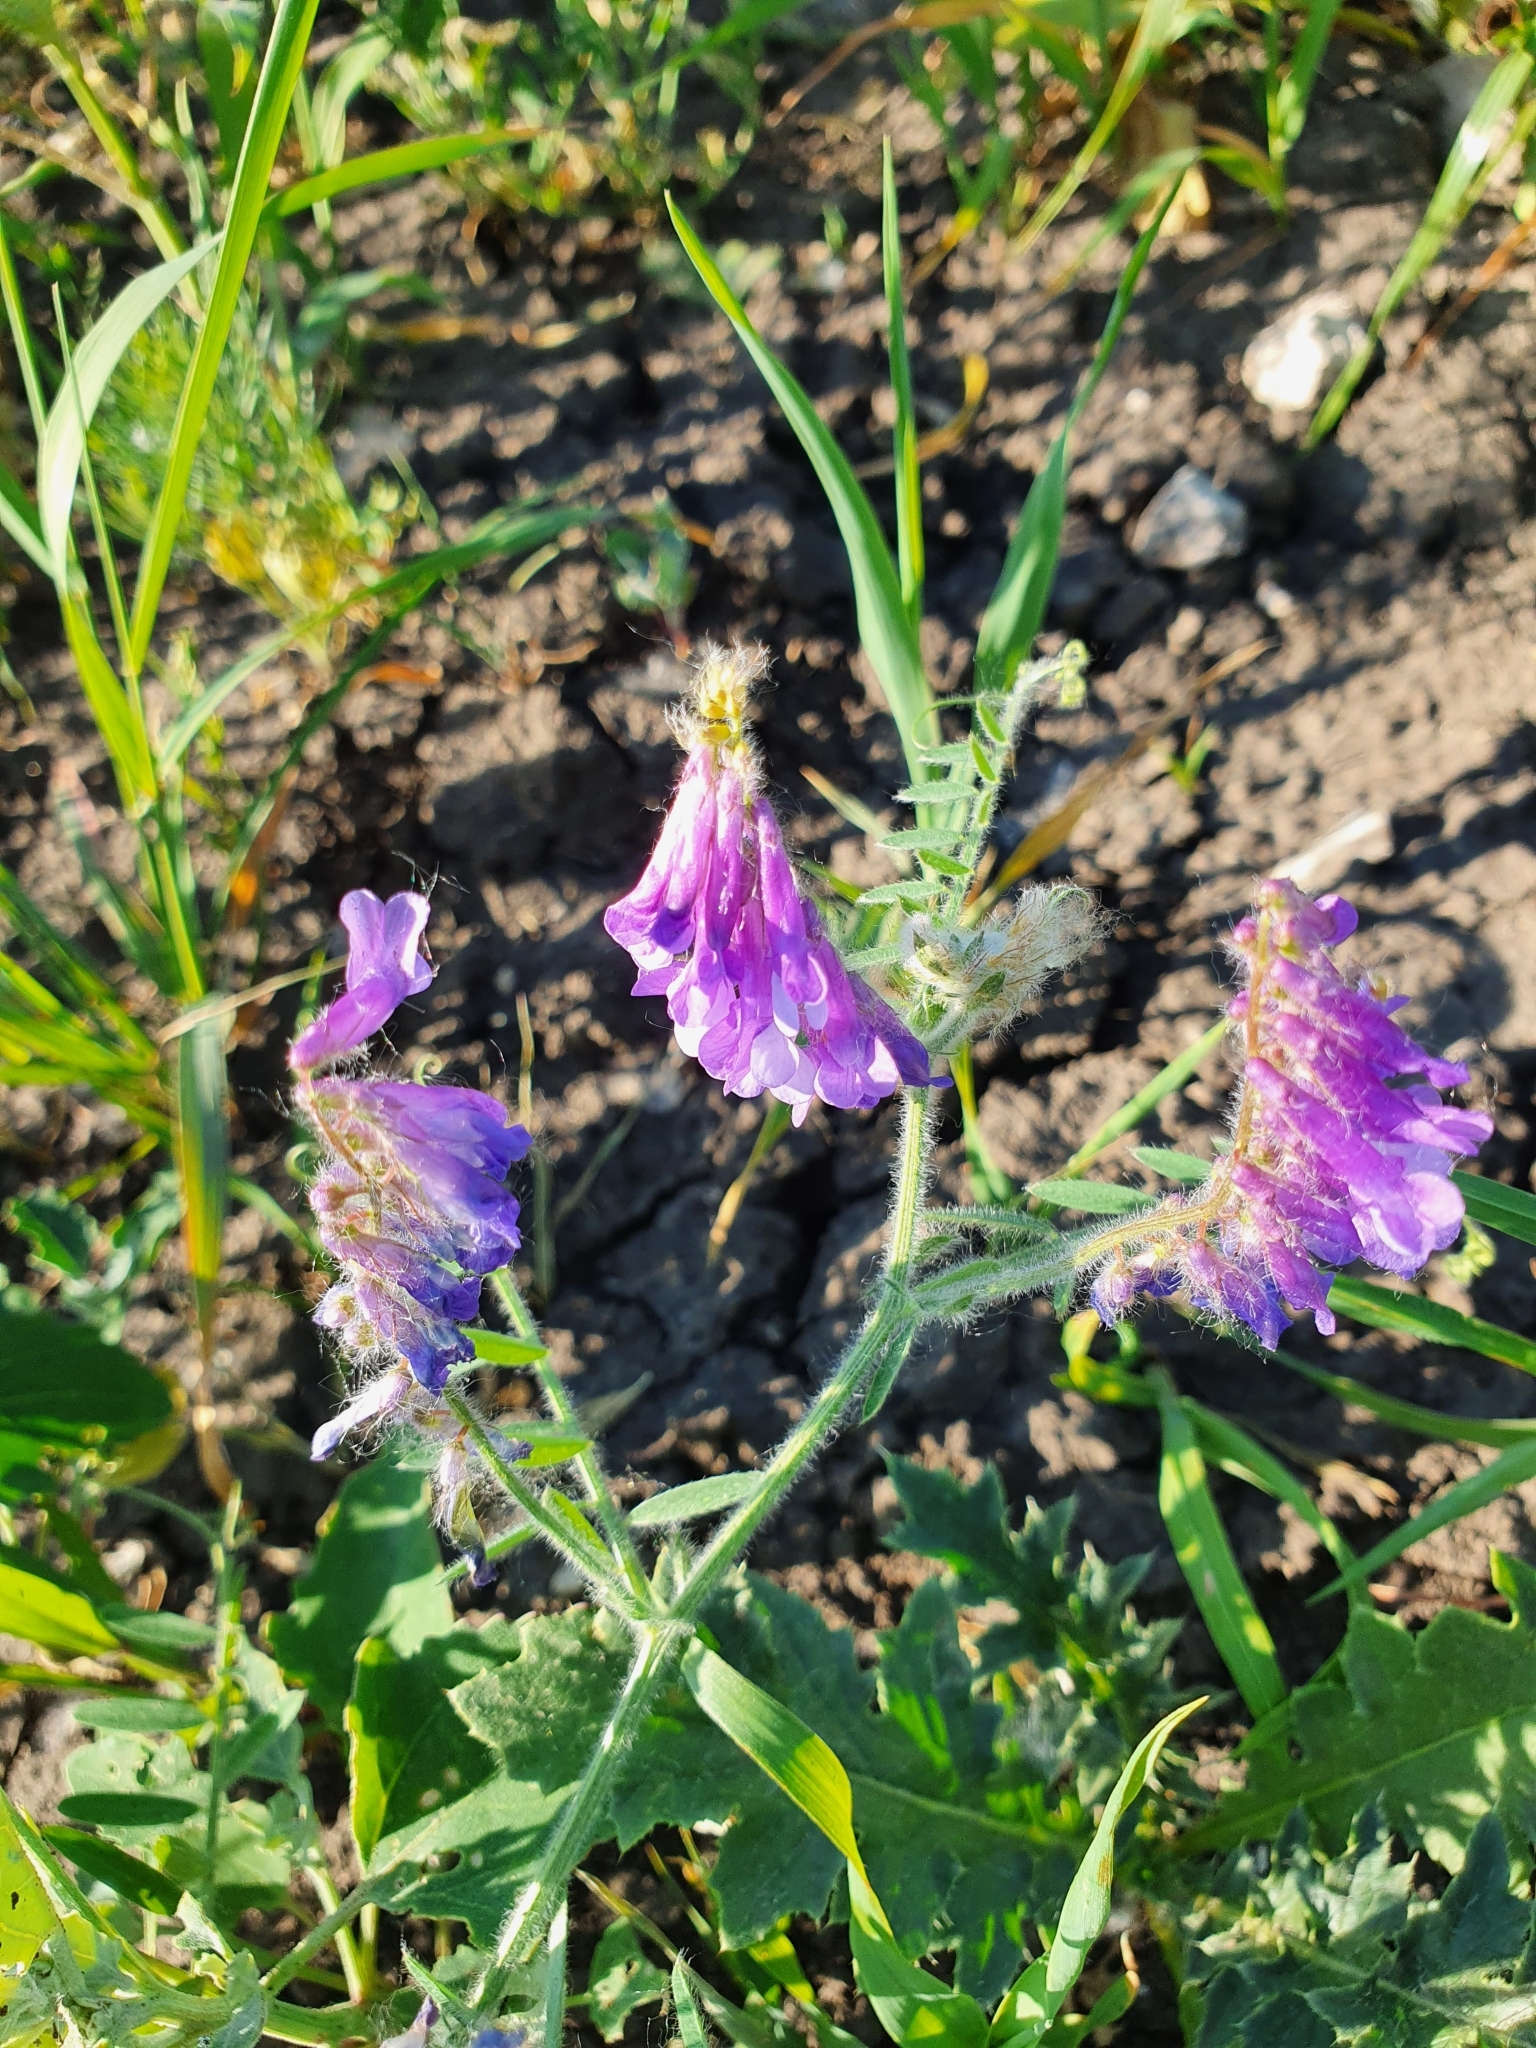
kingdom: Plantae
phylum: Tracheophyta
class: Magnoliopsida
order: Fabales
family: Fabaceae
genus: Vicia
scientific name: Vicia villosa
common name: Fodder vetch
